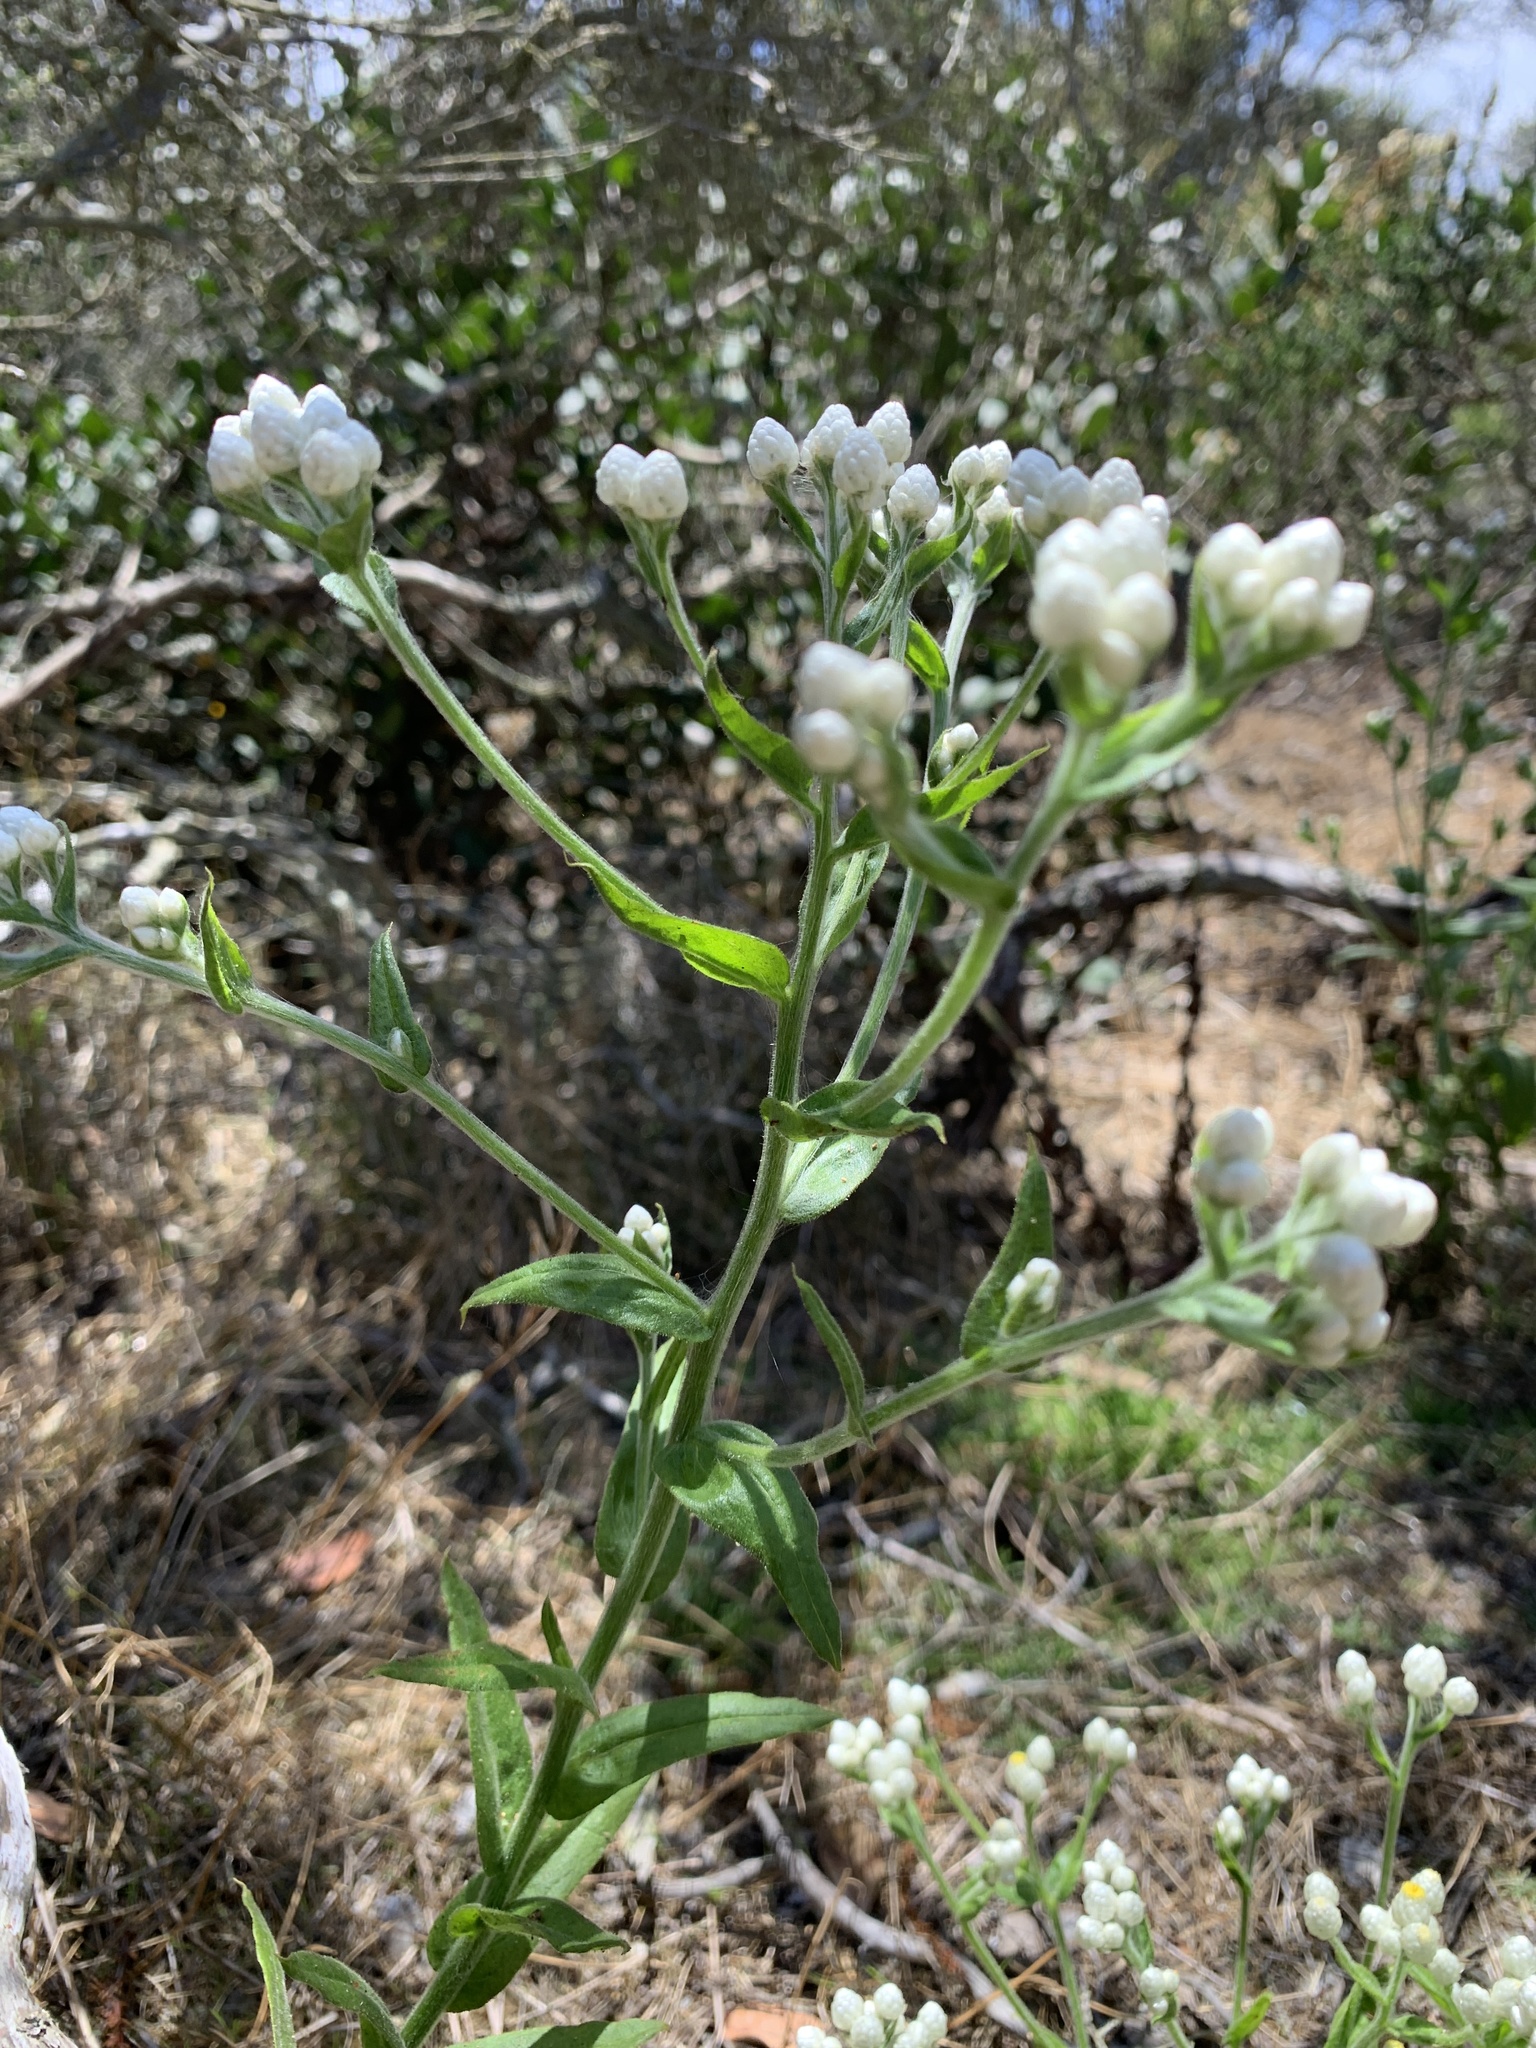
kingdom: Plantae
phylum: Tracheophyta
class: Magnoliopsida
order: Asterales
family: Asteraceae
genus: Pseudognaphalium
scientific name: Pseudognaphalium californicum
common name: California rabbit-tobacco
